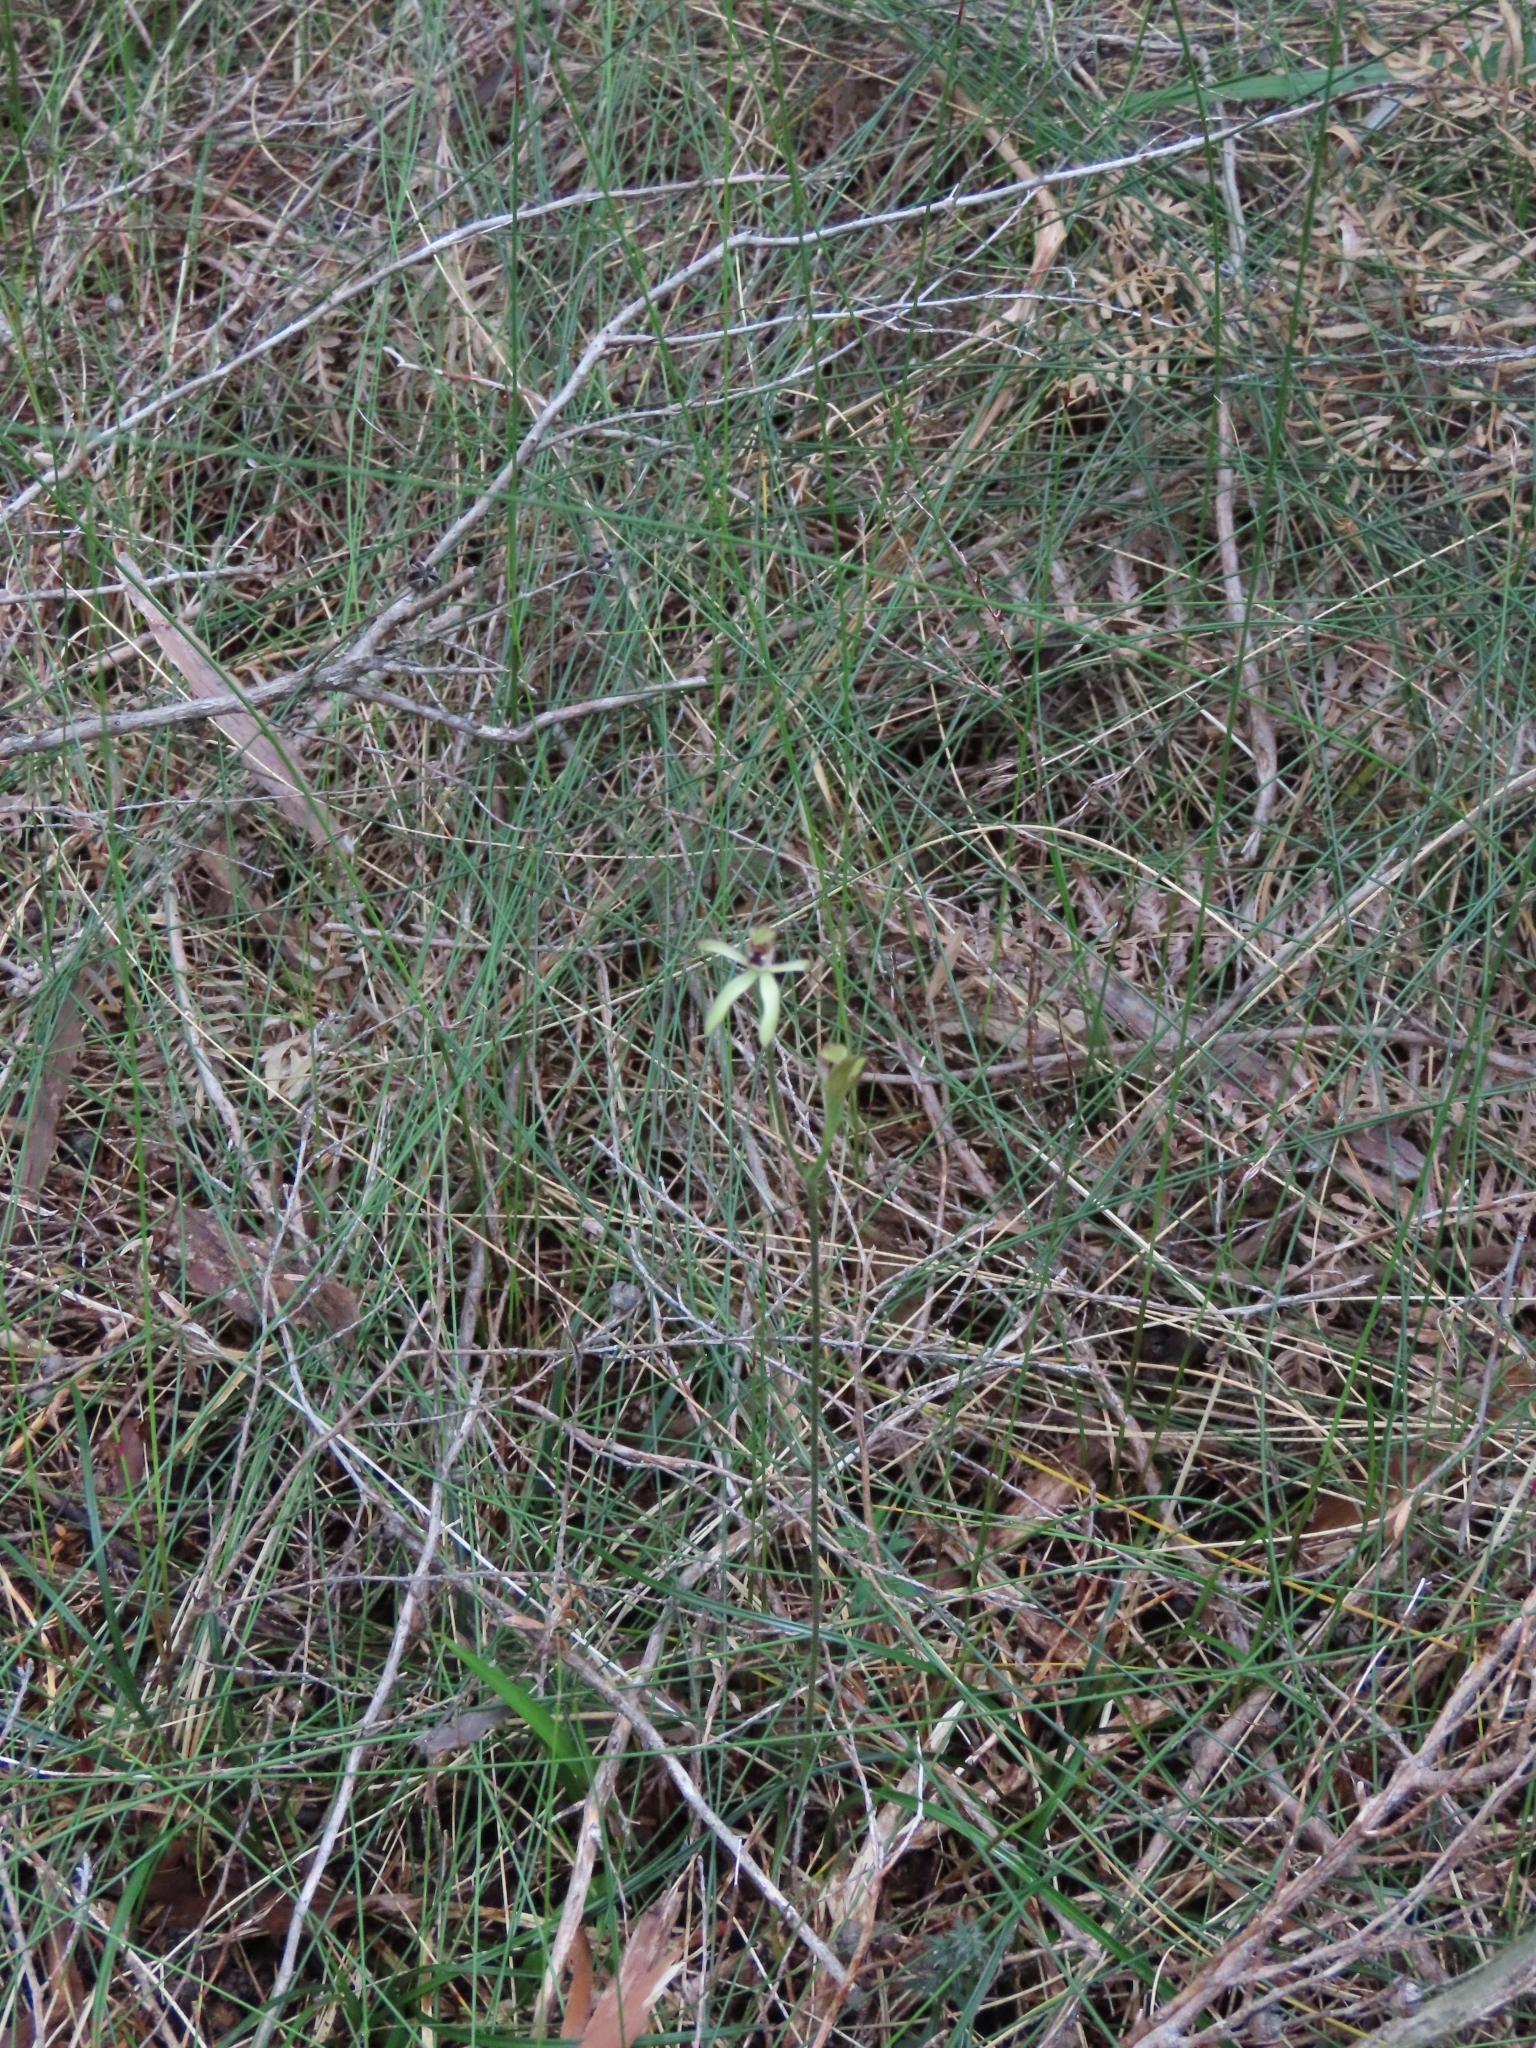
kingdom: Plantae
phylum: Tracheophyta
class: Liliopsida
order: Asparagales
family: Orchidaceae
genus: Caladenia
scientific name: Caladenia atradenia
